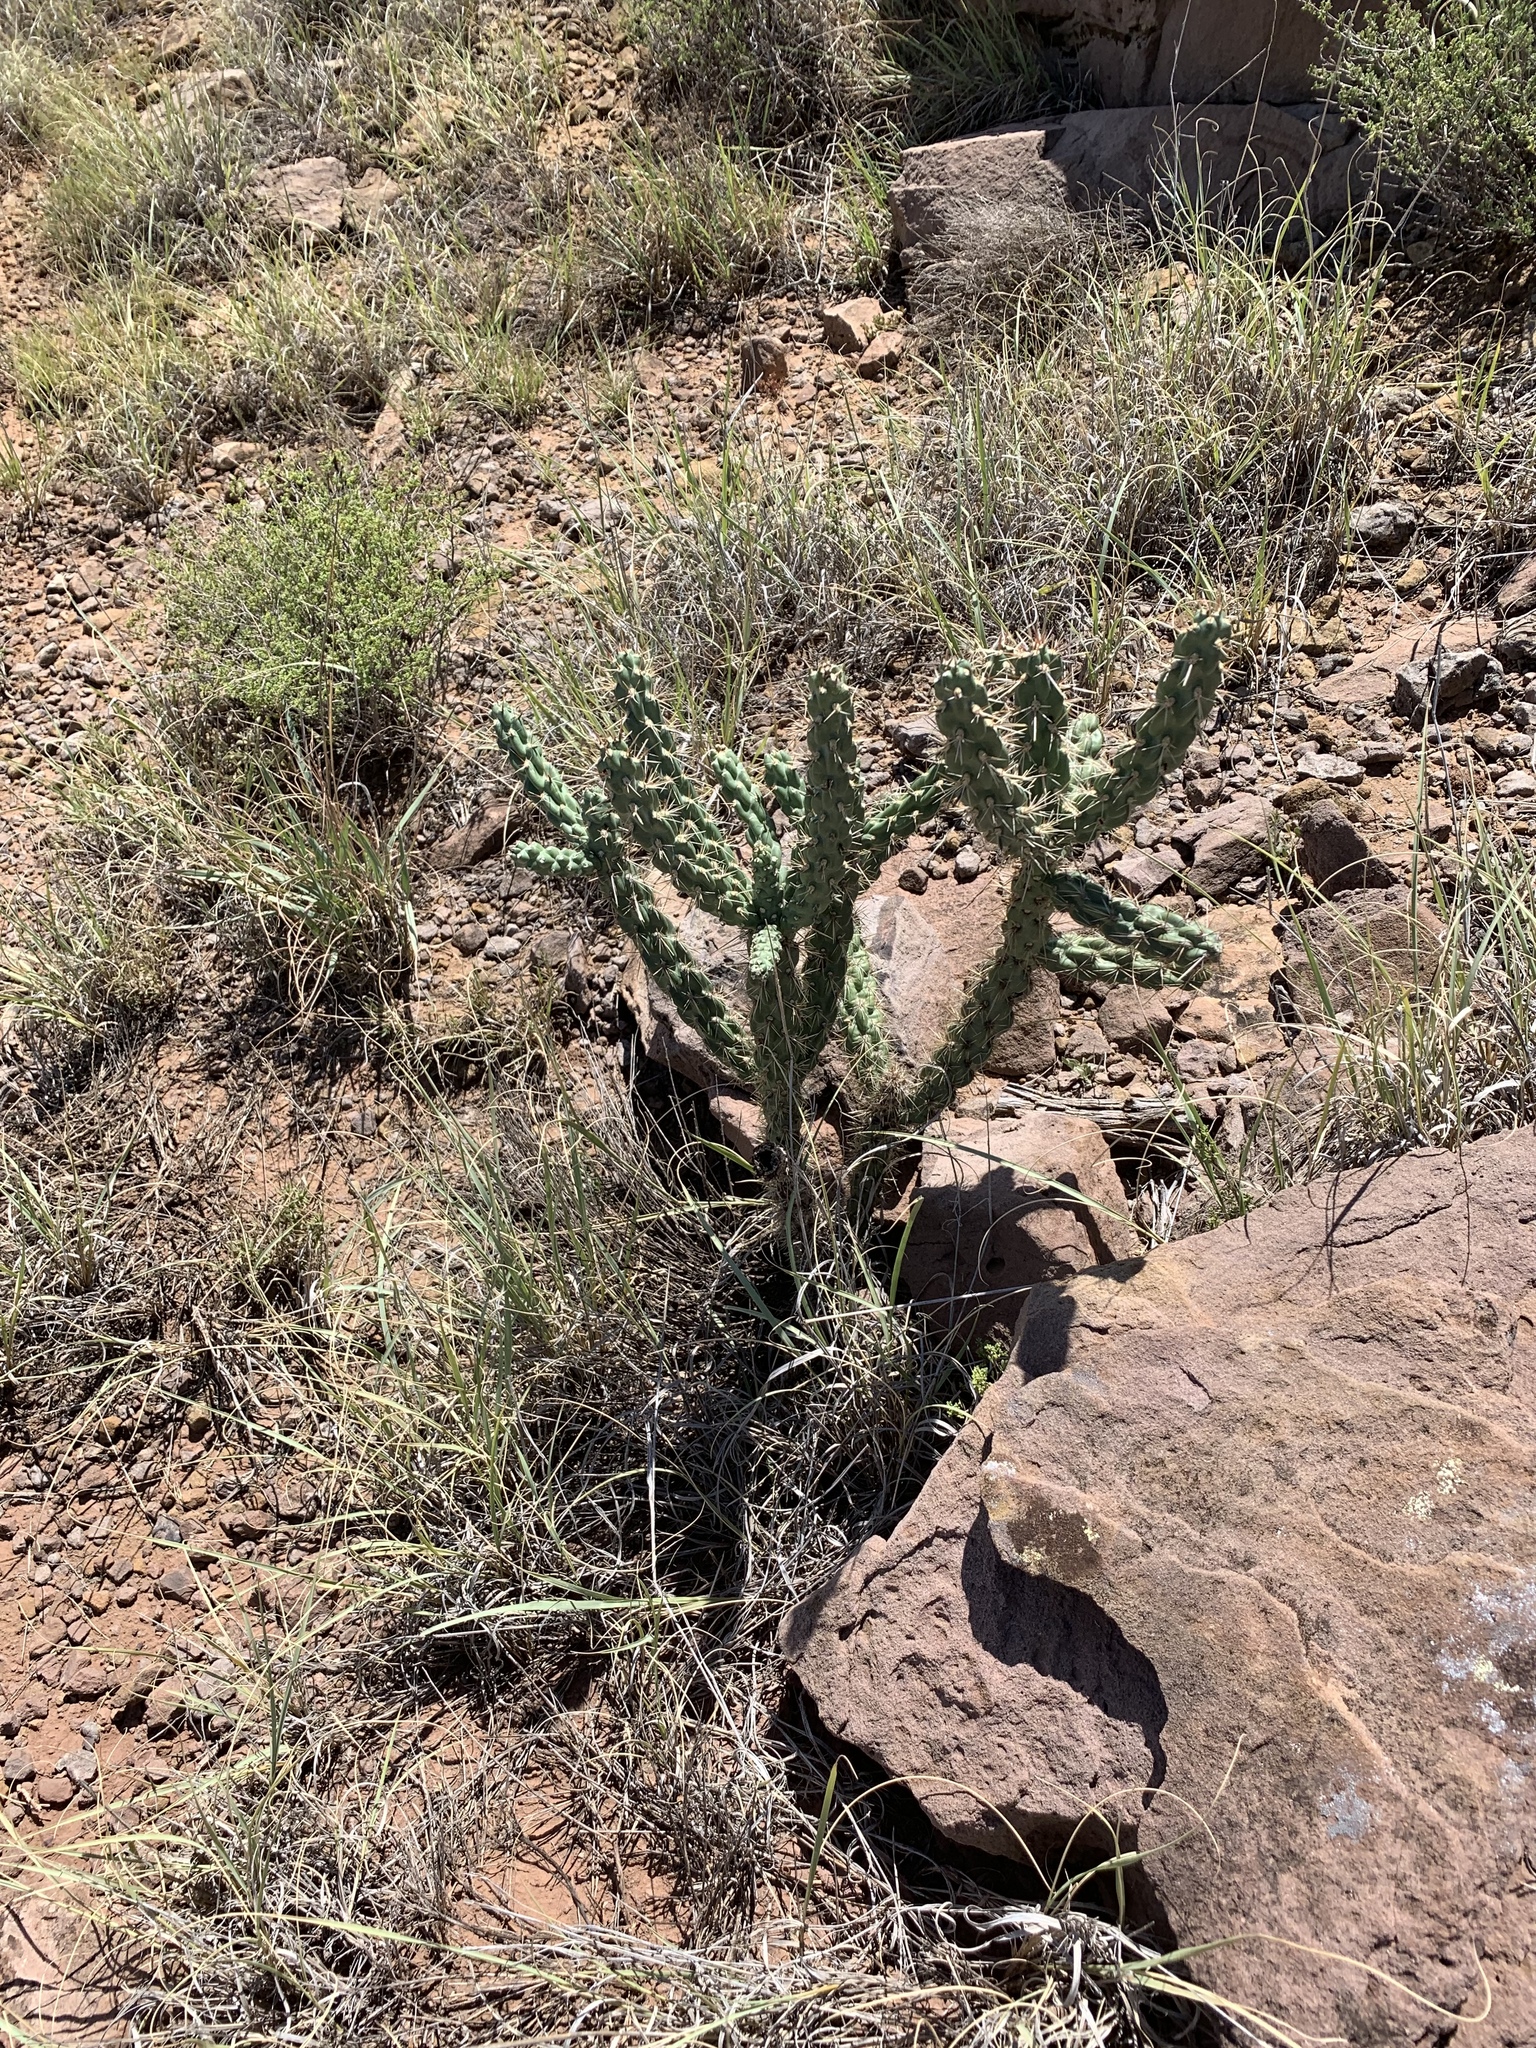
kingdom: Plantae
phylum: Tracheophyta
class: Magnoliopsida
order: Caryophyllales
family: Cactaceae
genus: Cylindropuntia
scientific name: Cylindropuntia imbricata
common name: Candelabrum cactus
